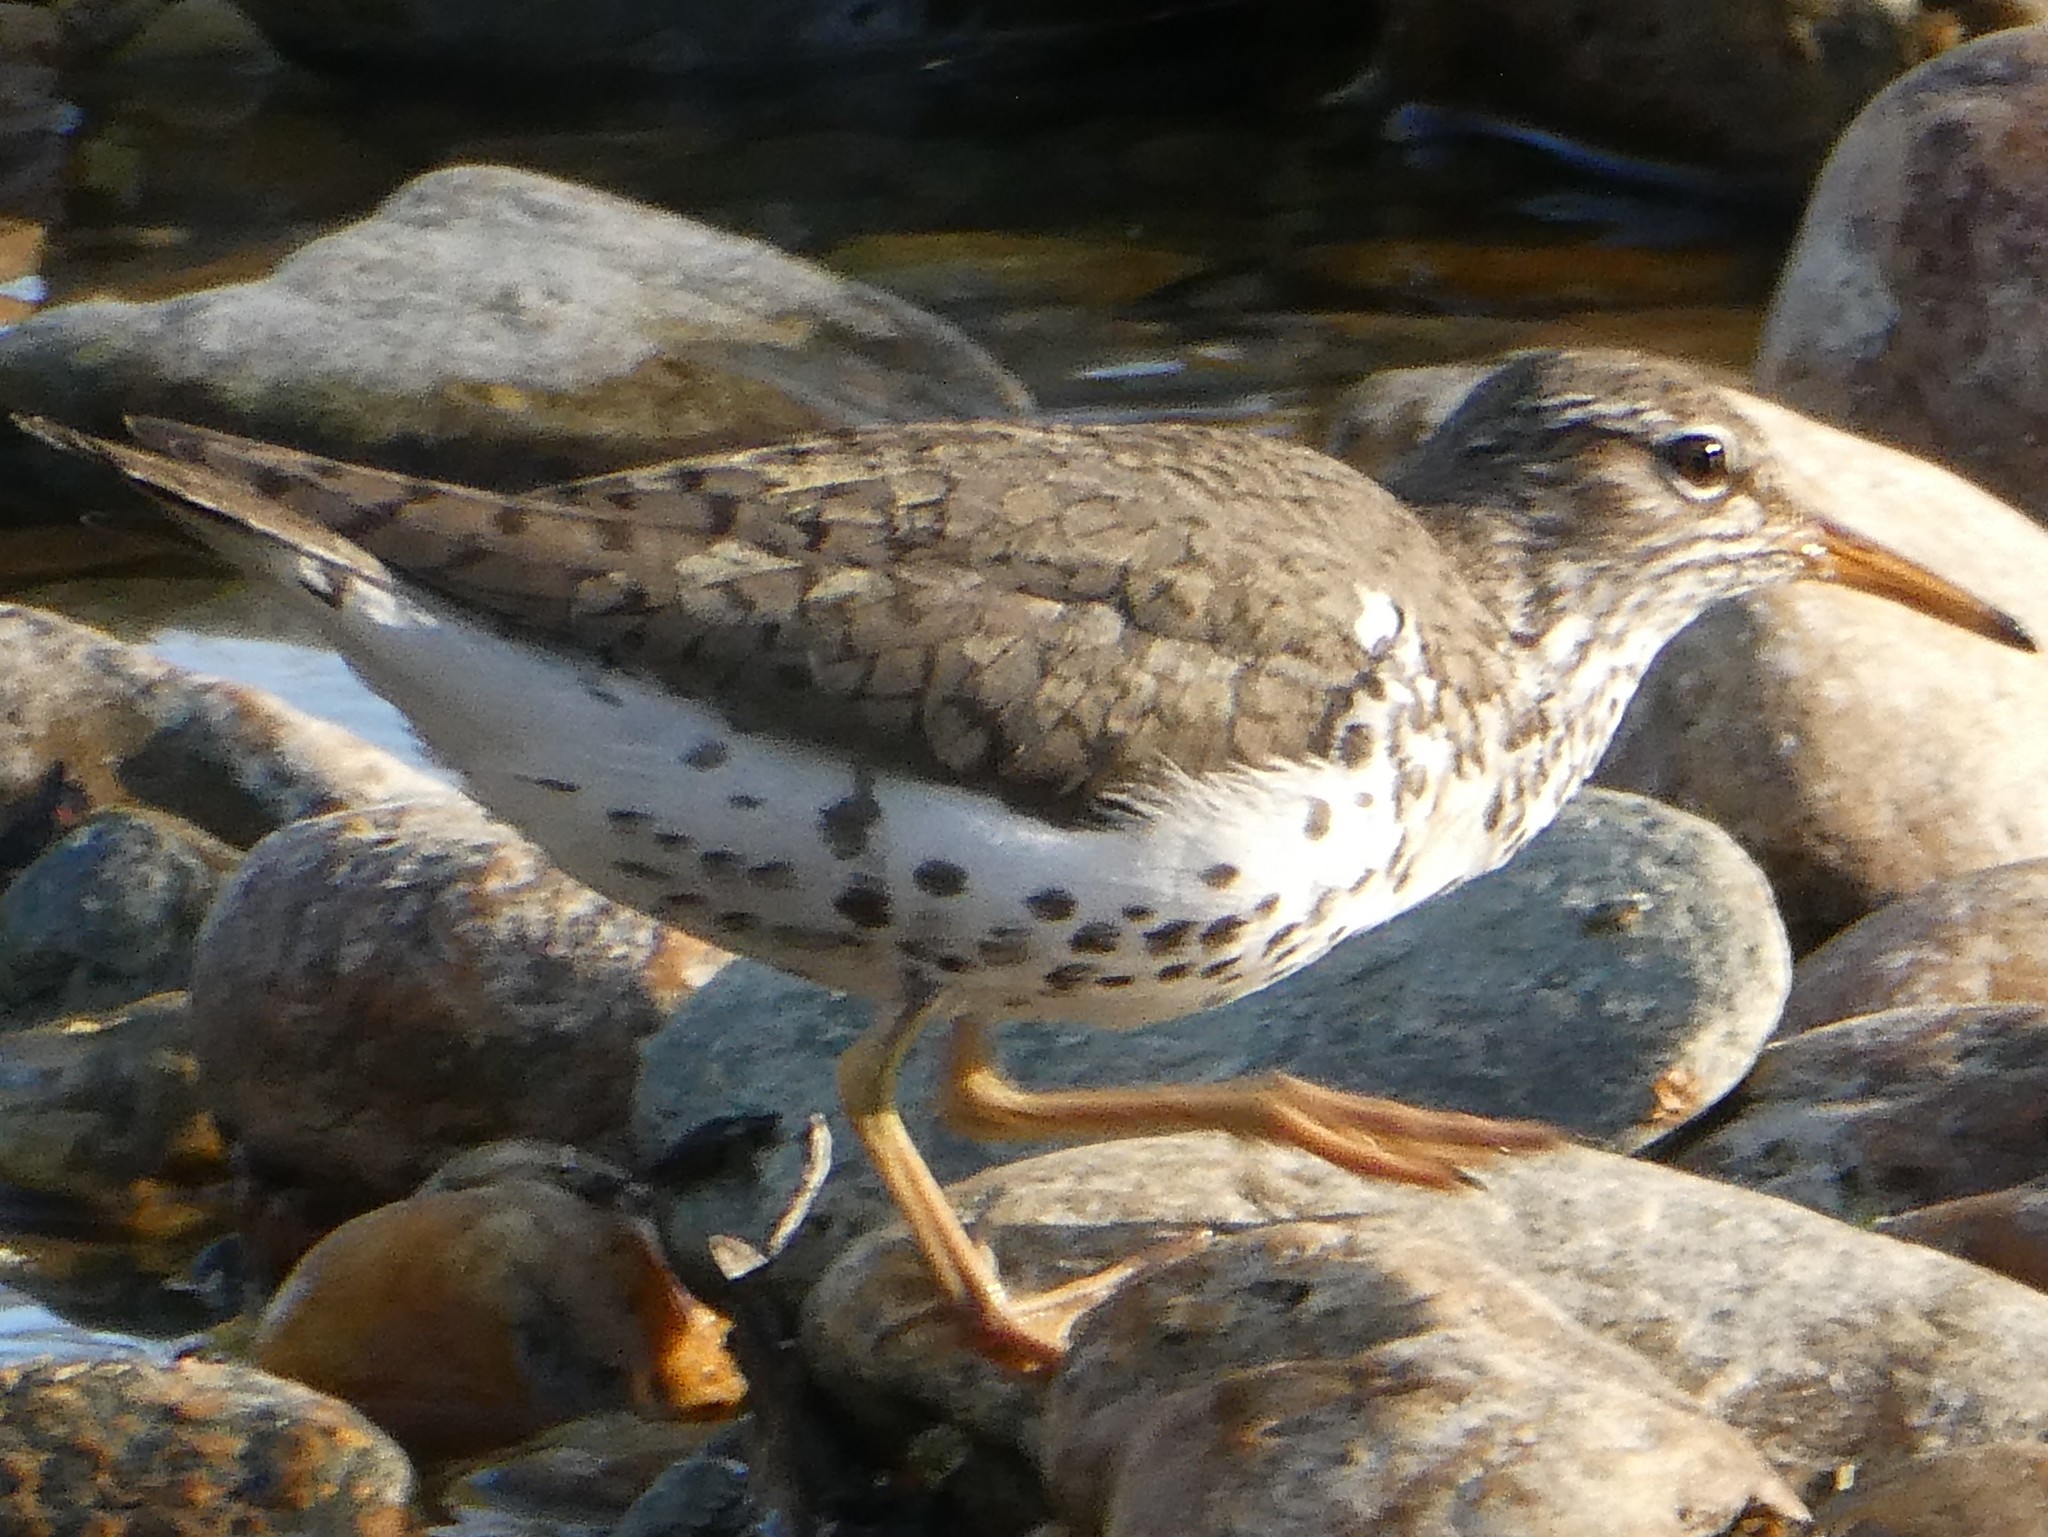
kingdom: Animalia
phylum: Chordata
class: Aves
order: Charadriiformes
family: Scolopacidae
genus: Actitis
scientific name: Actitis macularius
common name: Spotted sandpiper
